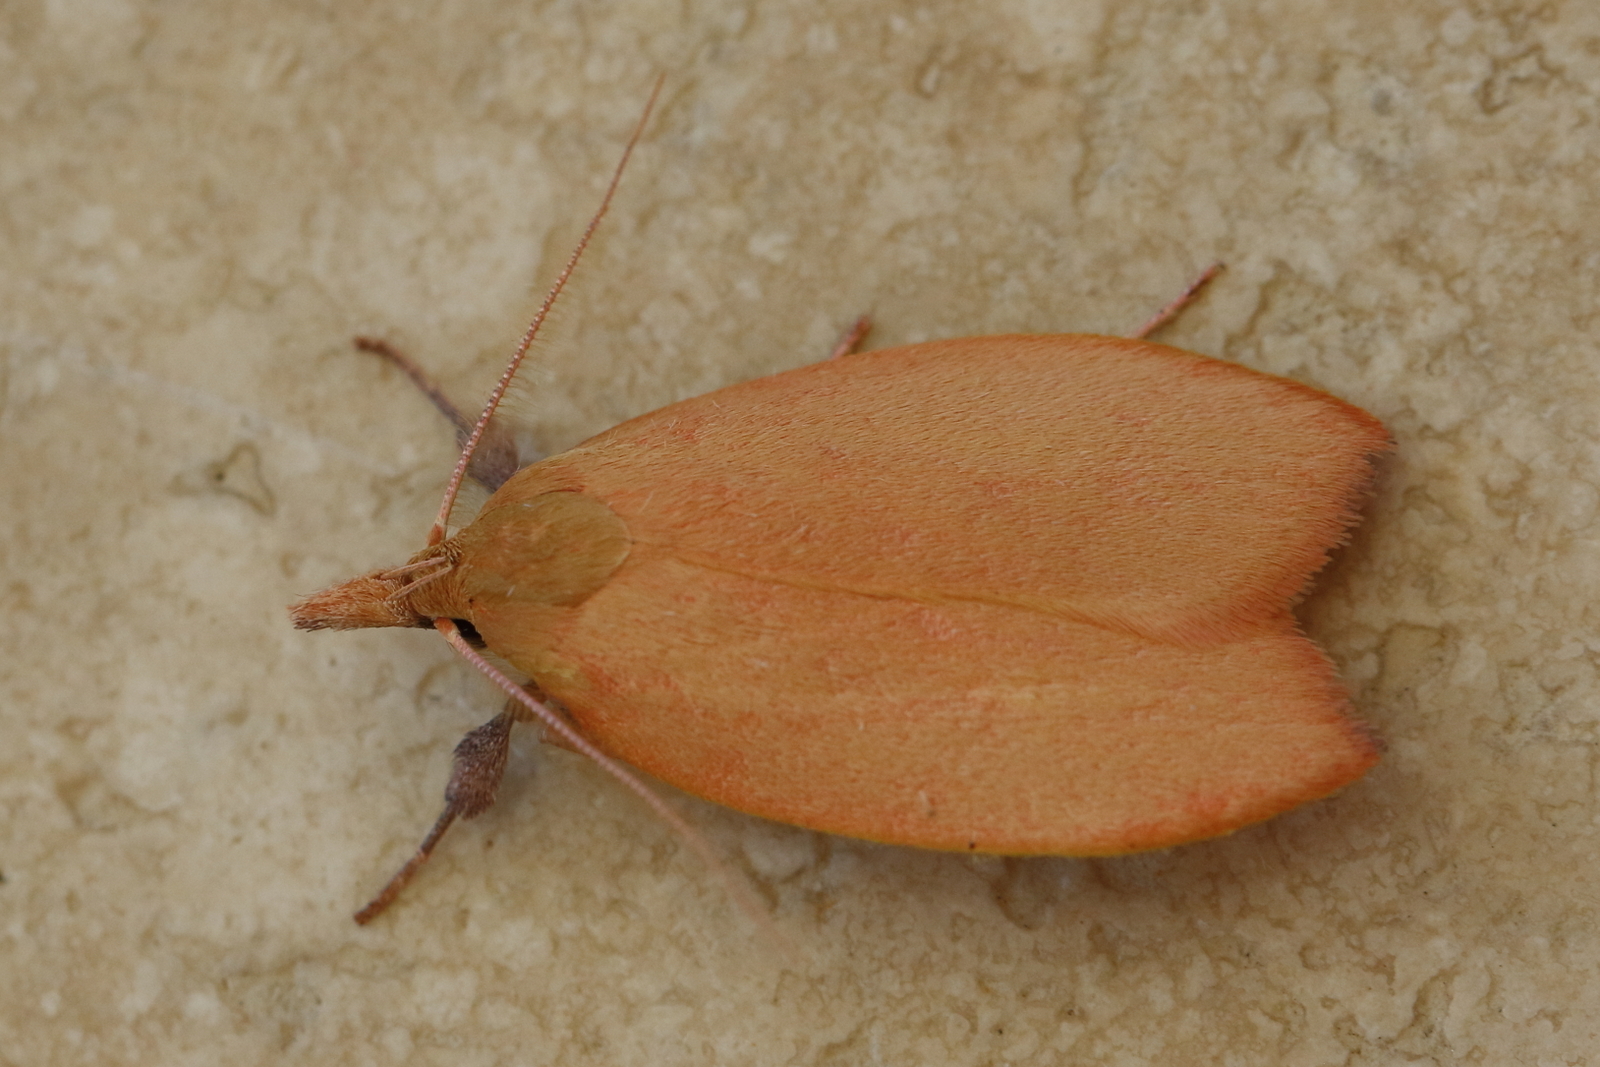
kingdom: Animalia
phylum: Arthropoda
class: Insecta
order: Lepidoptera
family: Oecophoridae
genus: Wingia
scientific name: Wingia rectiorella
